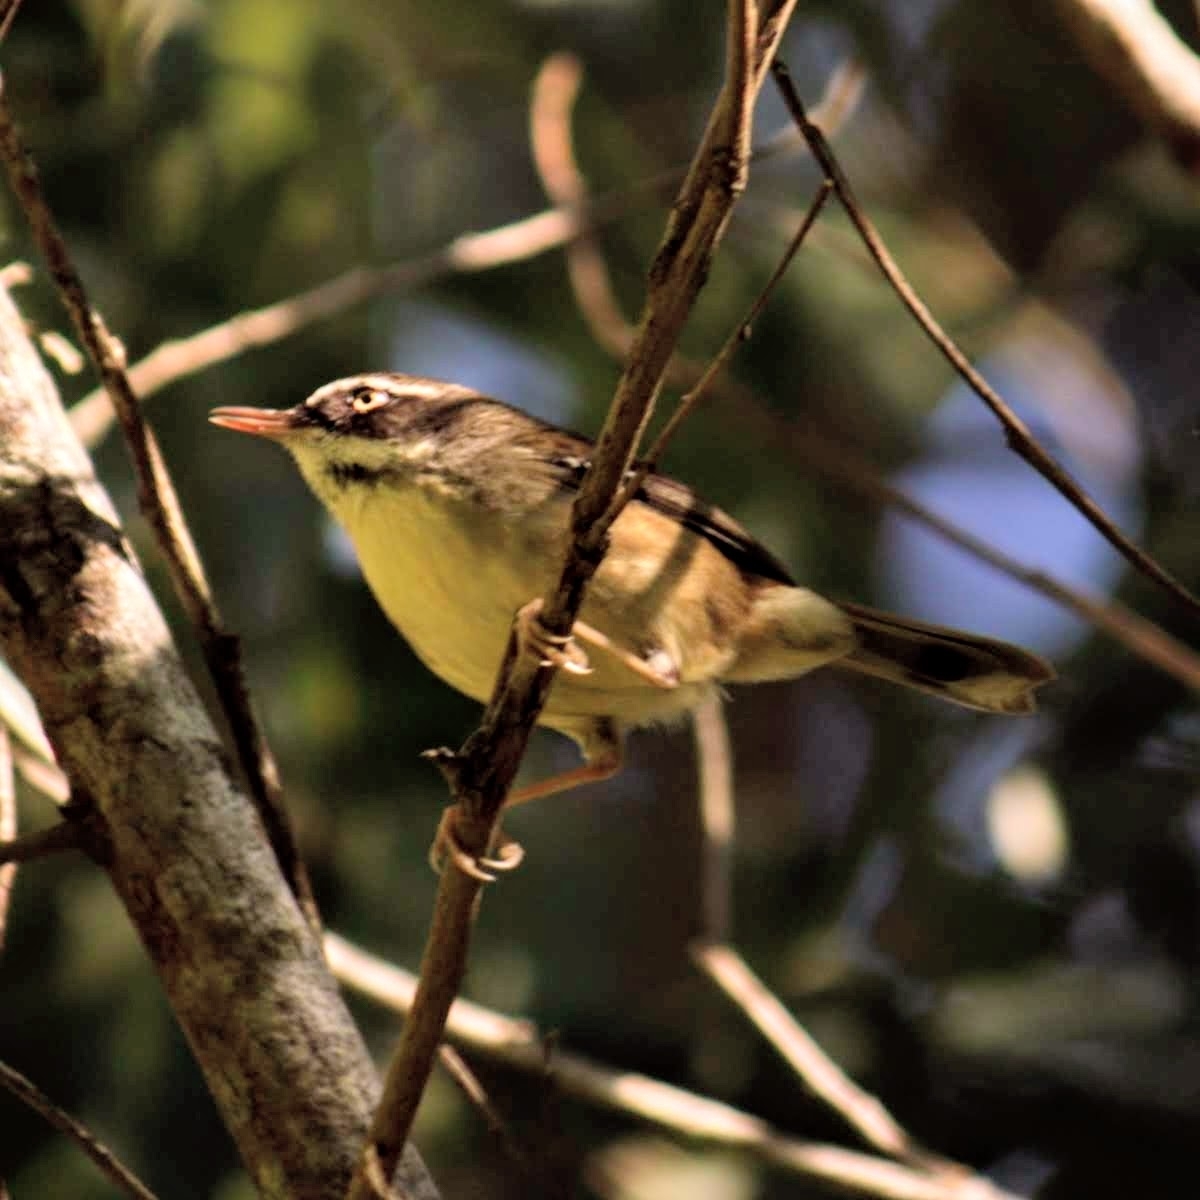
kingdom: Animalia
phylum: Chordata
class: Aves
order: Passeriformes
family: Acanthizidae
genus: Sericornis
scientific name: Sericornis frontalis
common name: White-browed scrubwren
